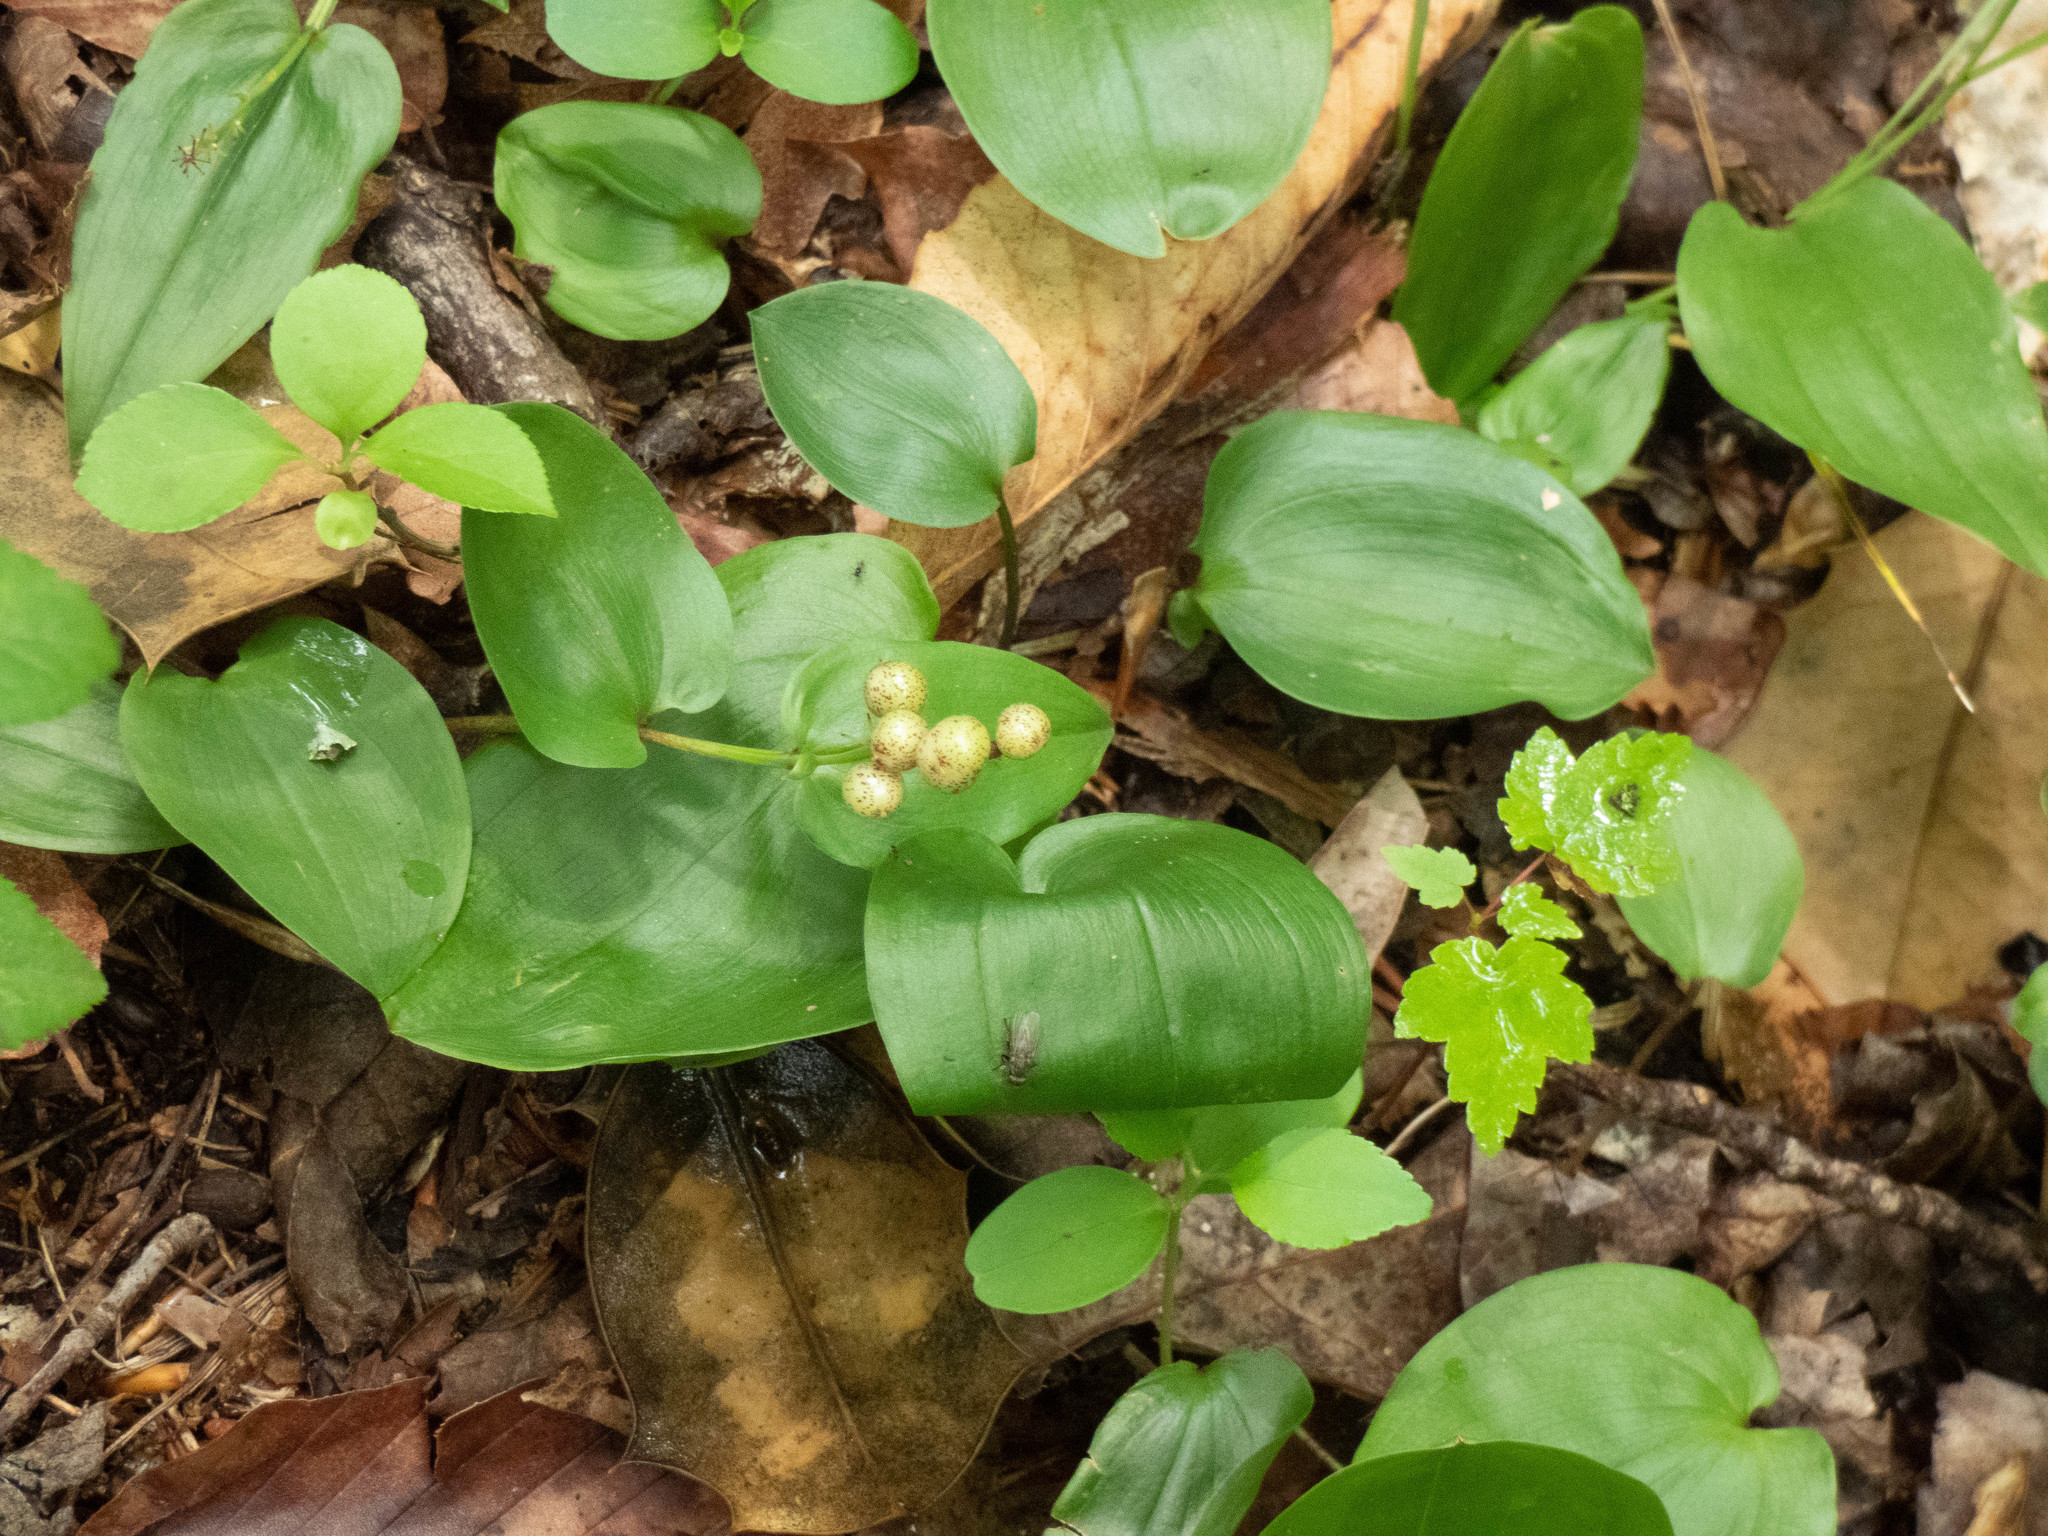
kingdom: Plantae
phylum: Tracheophyta
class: Liliopsida
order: Asparagales
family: Asparagaceae
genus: Maianthemum
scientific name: Maianthemum canadense
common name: False lily-of-the-valley
